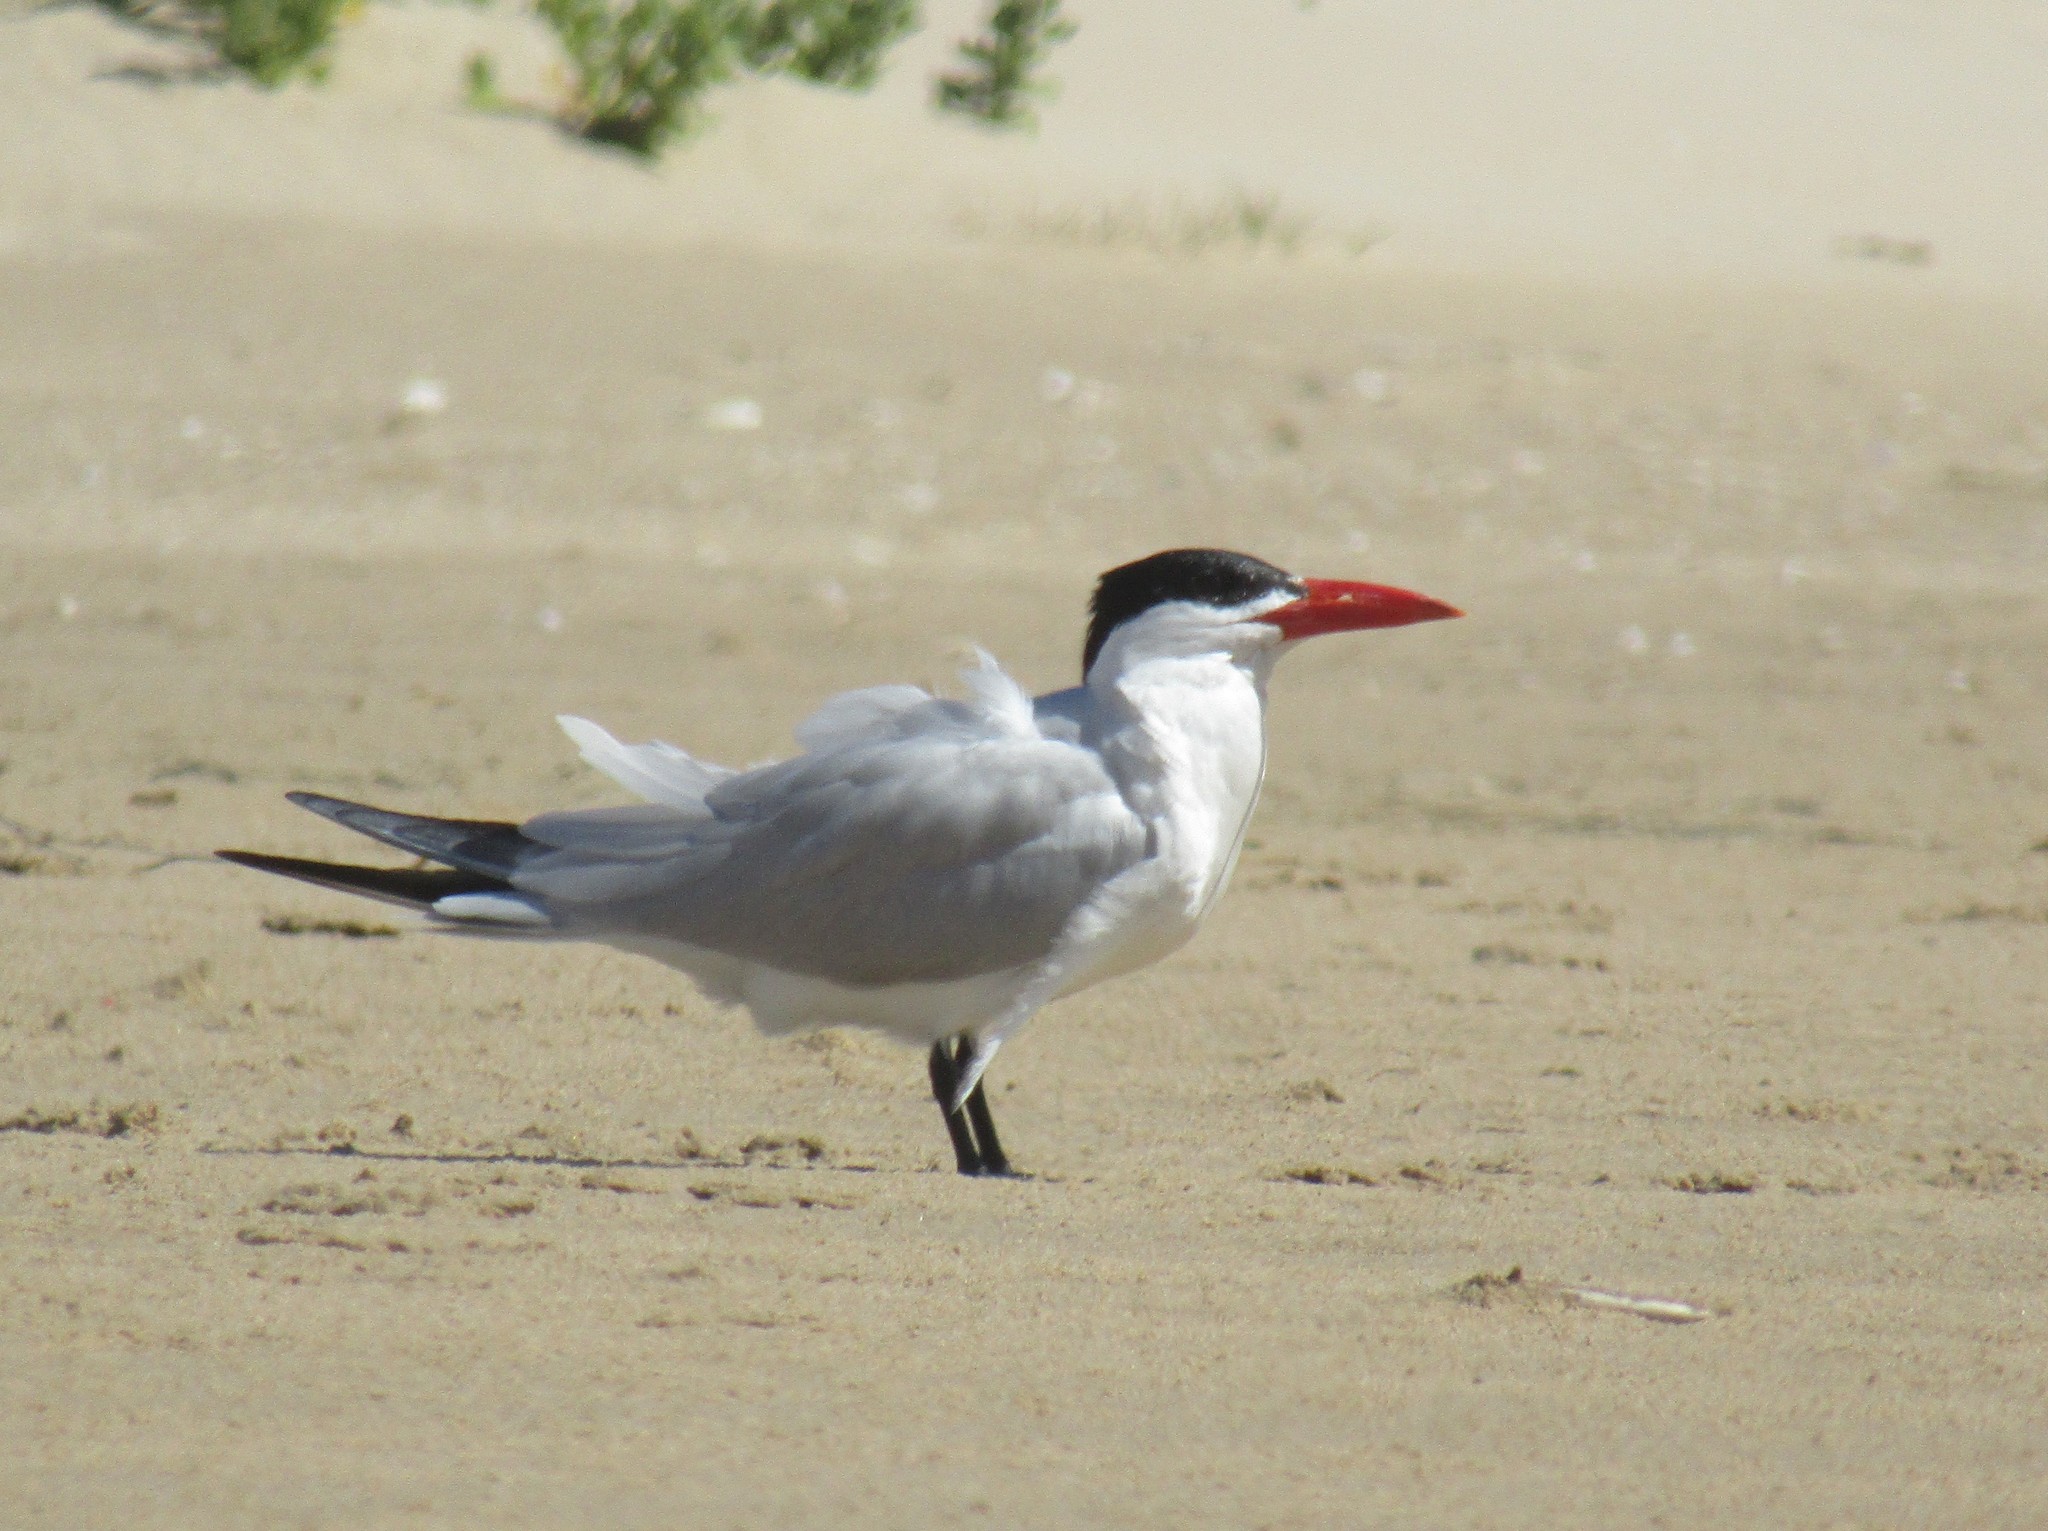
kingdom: Animalia
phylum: Chordata
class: Aves
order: Charadriiformes
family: Laridae
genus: Hydroprogne
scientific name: Hydroprogne caspia
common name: Caspian tern
